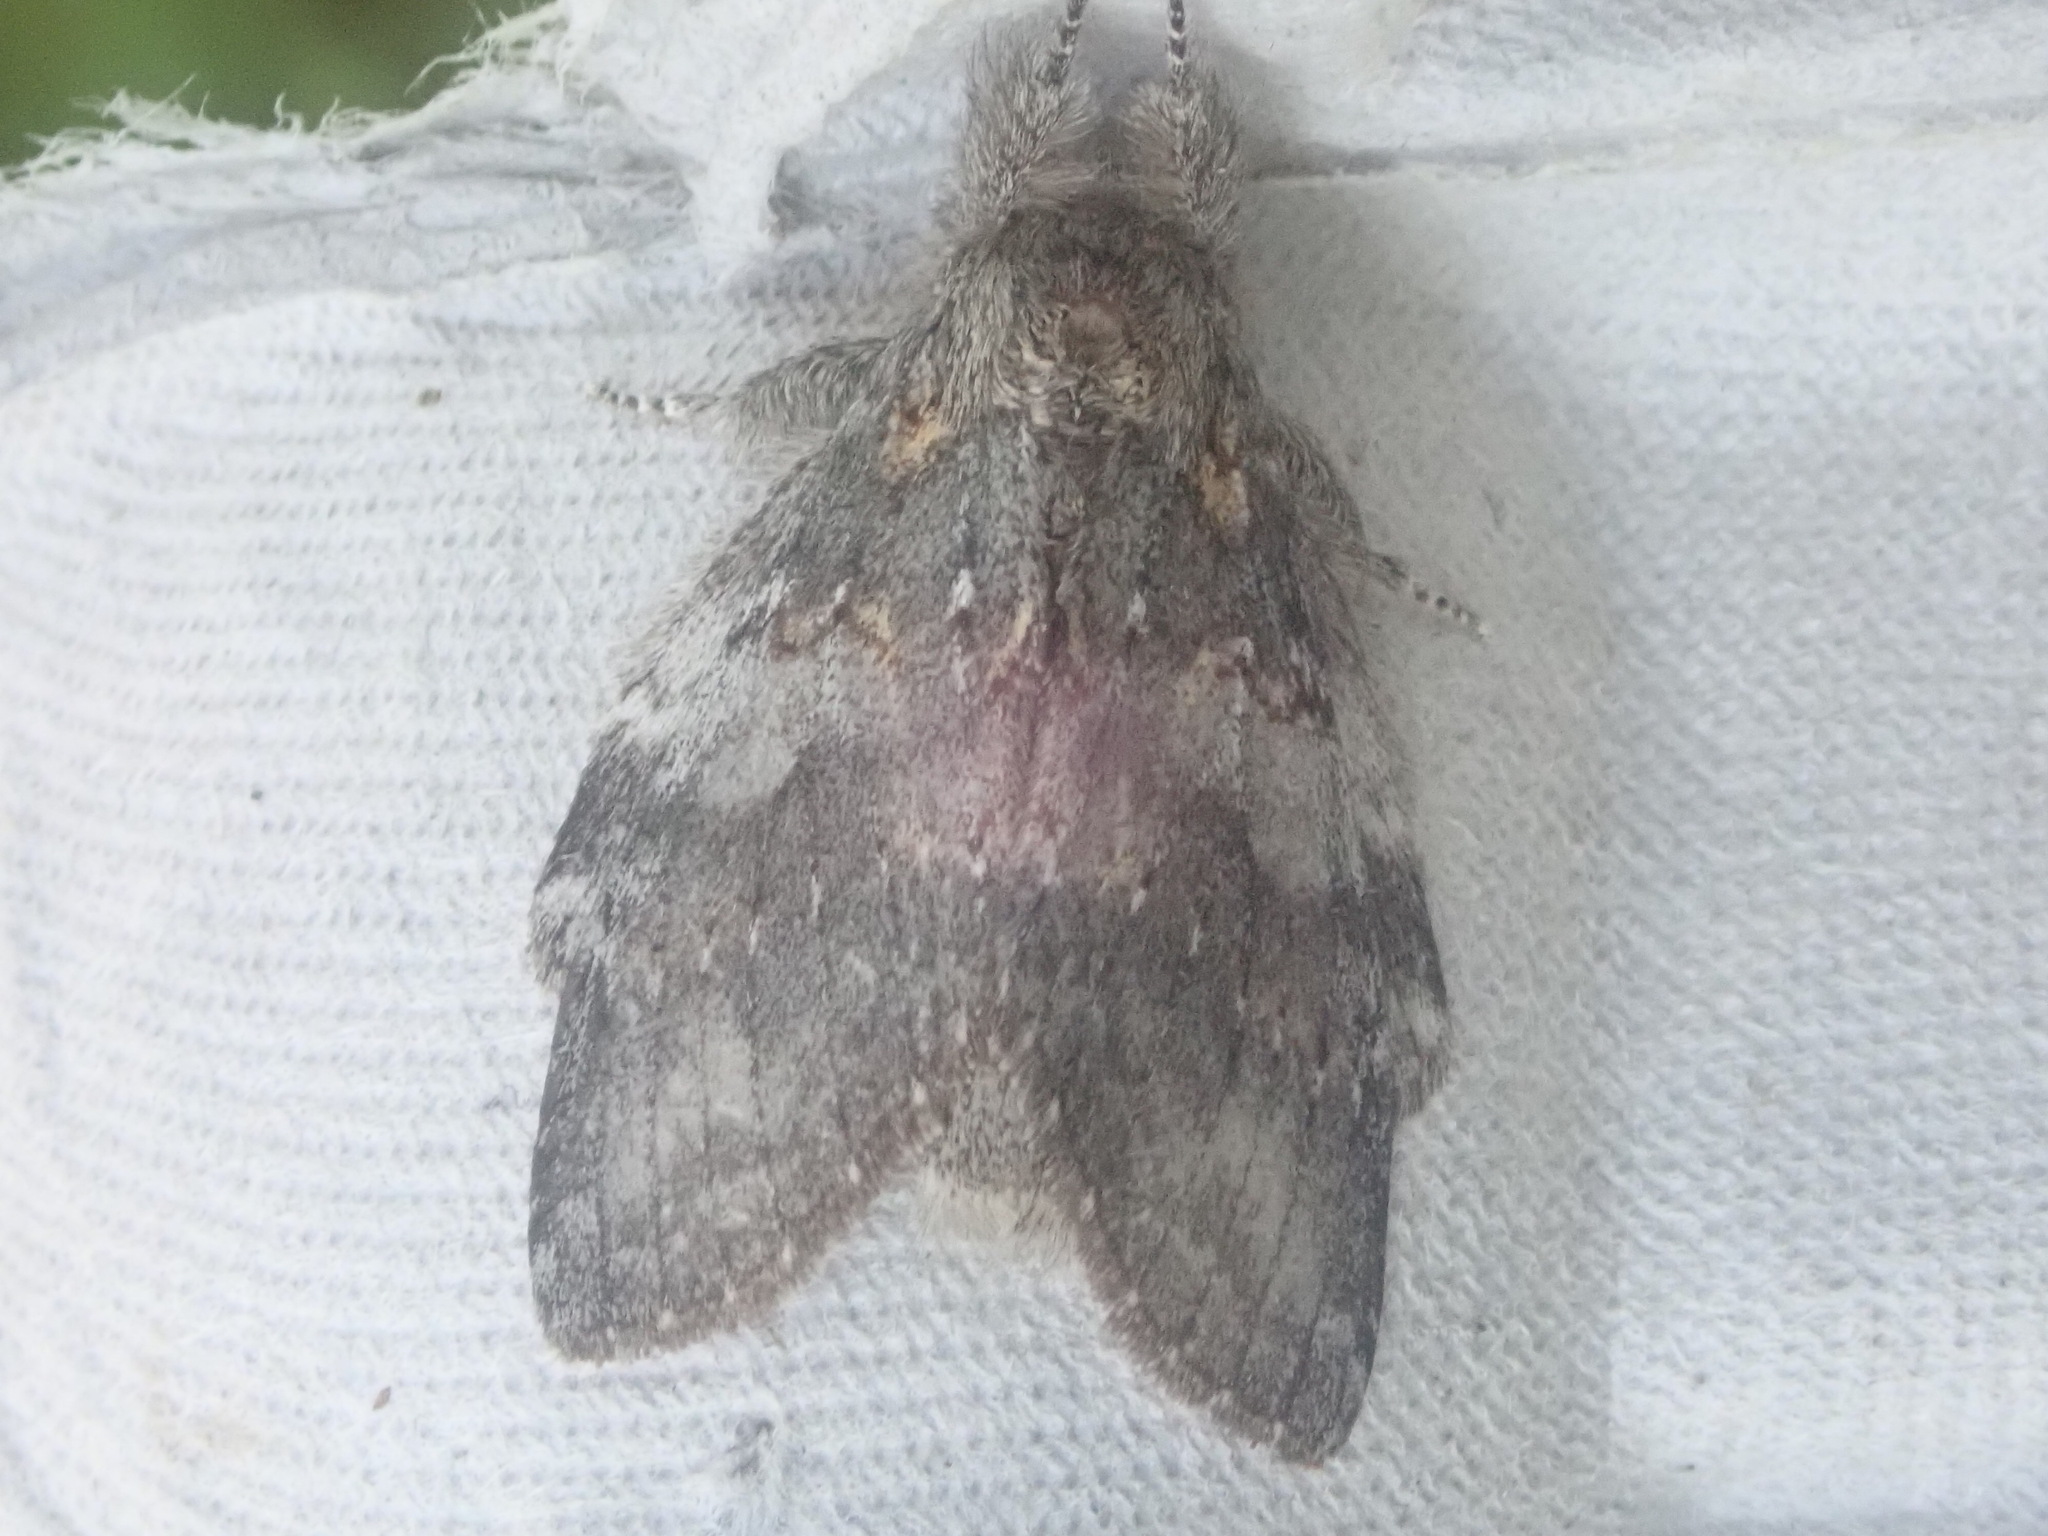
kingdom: Animalia
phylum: Arthropoda
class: Insecta
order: Lepidoptera
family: Notodontidae
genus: Peridea
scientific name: Peridea angulosa
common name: Angulose prominent
